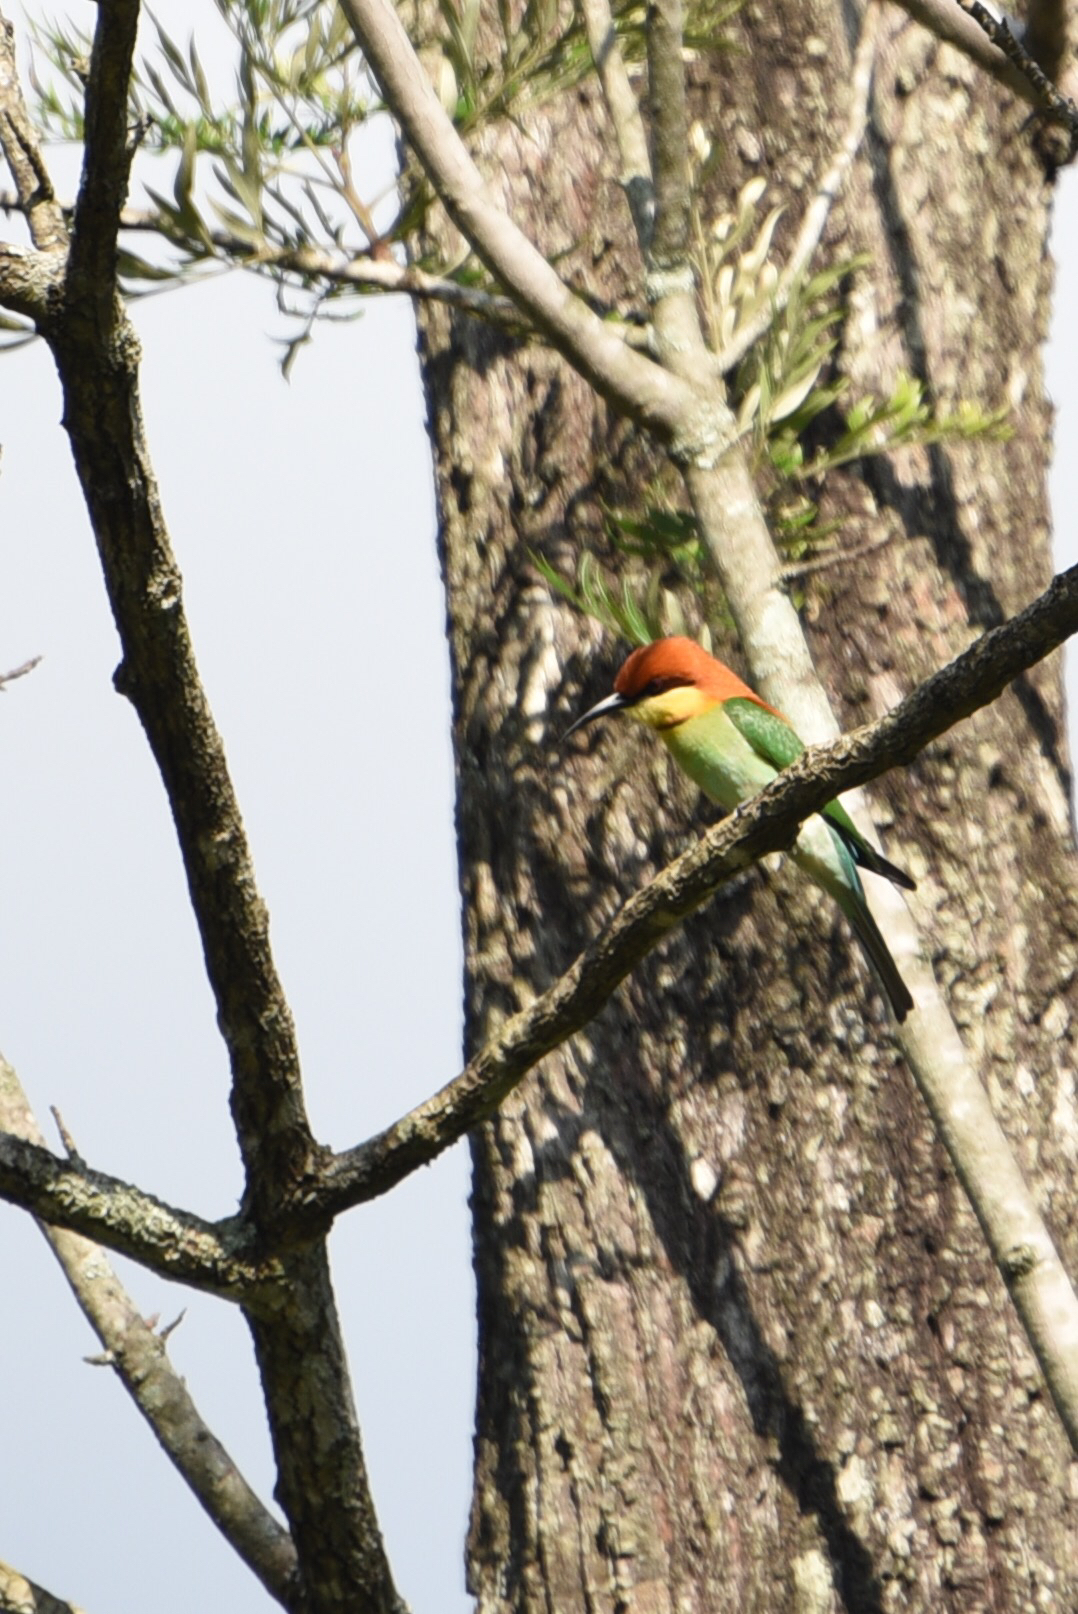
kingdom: Animalia
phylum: Chordata
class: Aves
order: Coraciiformes
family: Meropidae
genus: Merops
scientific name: Merops leschenaulti
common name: Chestnut-headed bee-eater
